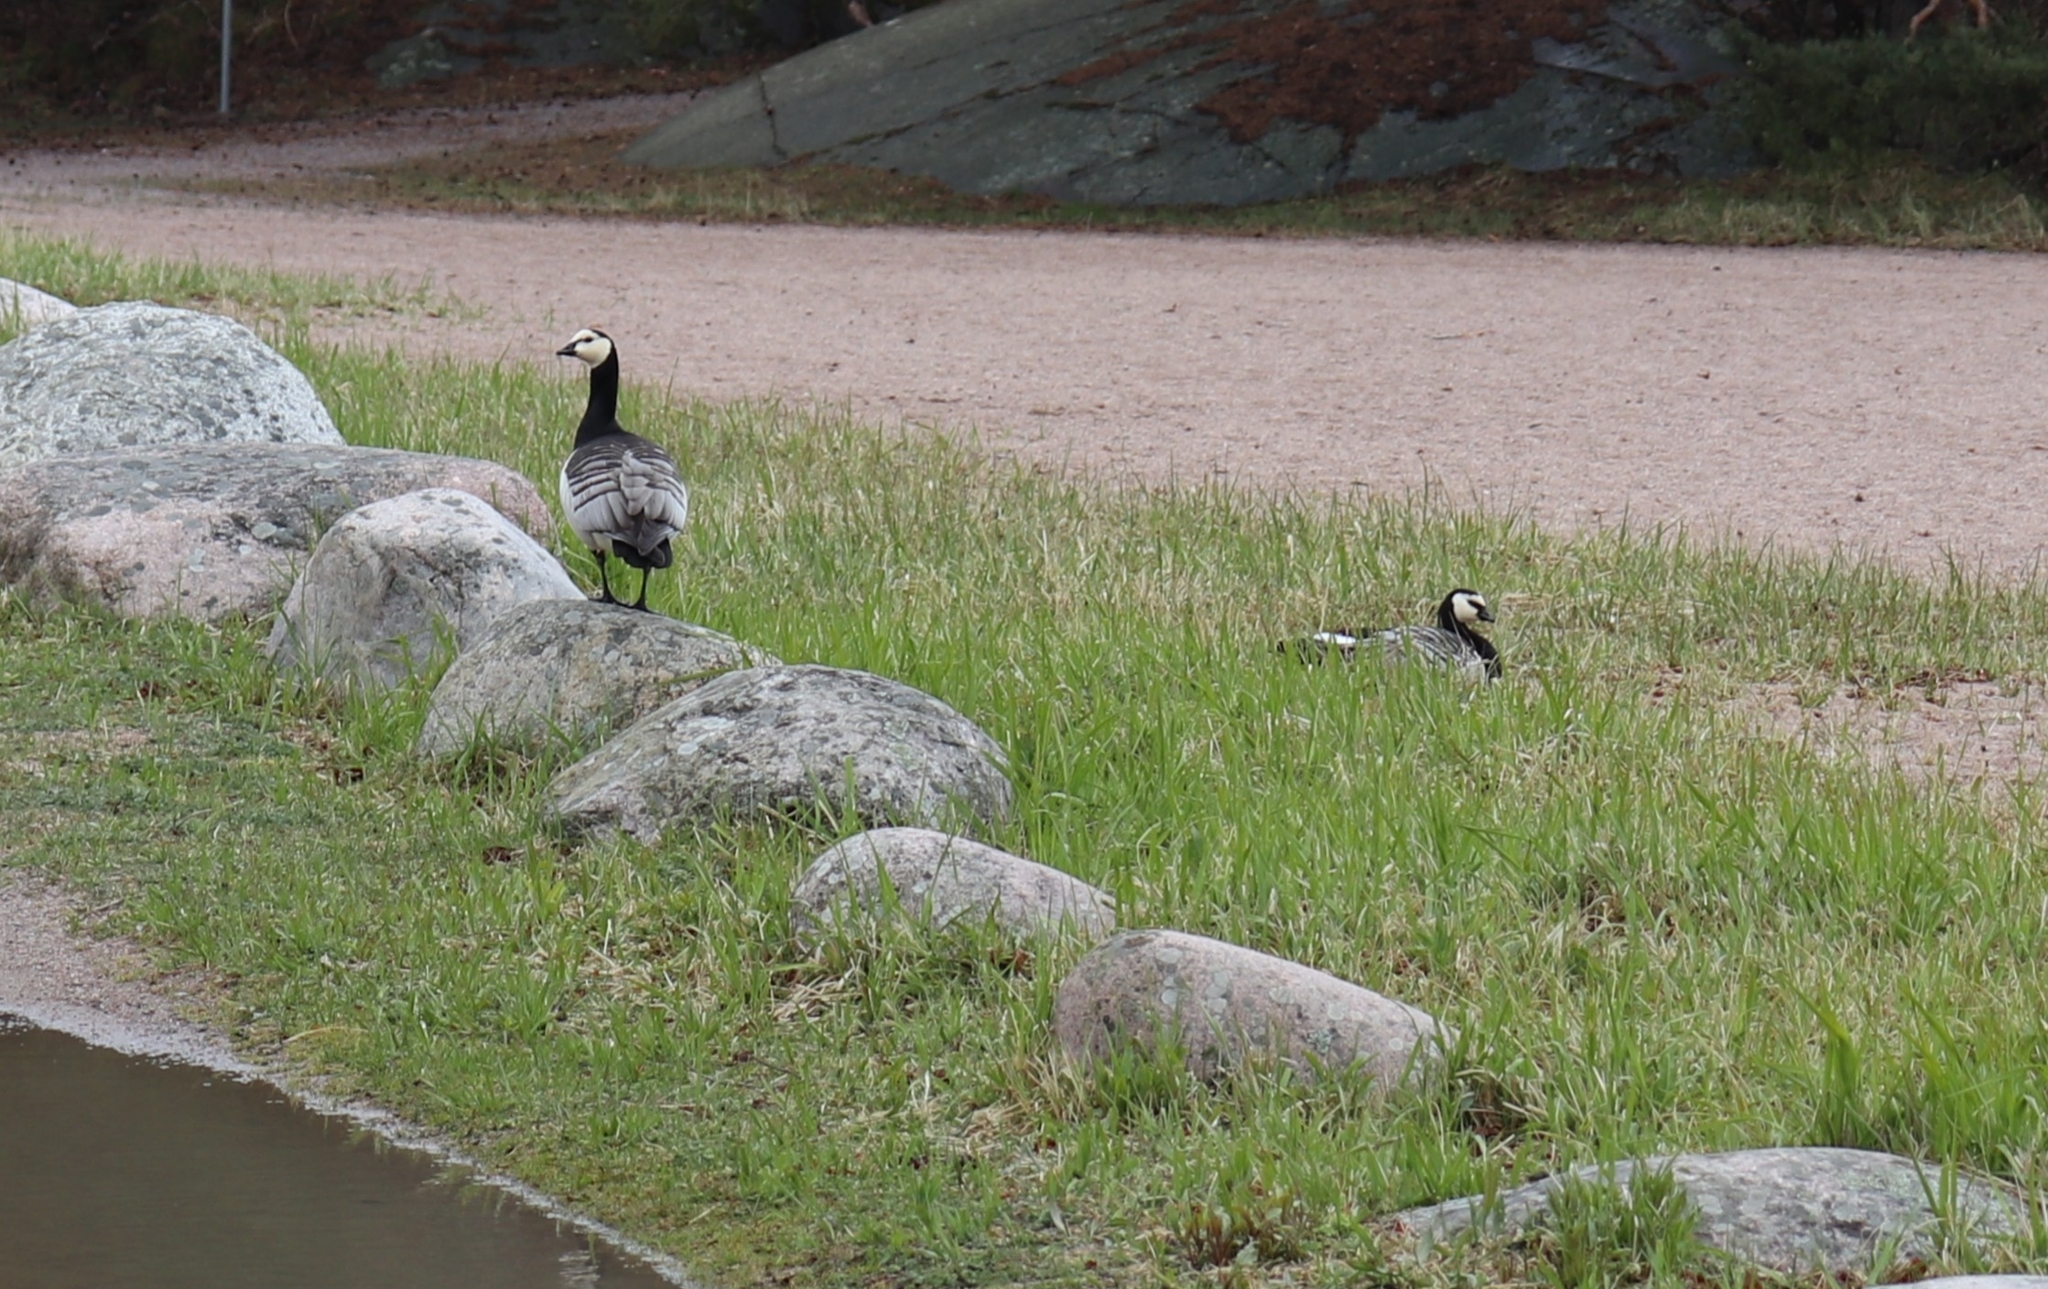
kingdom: Animalia
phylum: Chordata
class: Aves
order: Anseriformes
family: Anatidae
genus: Branta
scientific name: Branta leucopsis
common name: Barnacle goose
